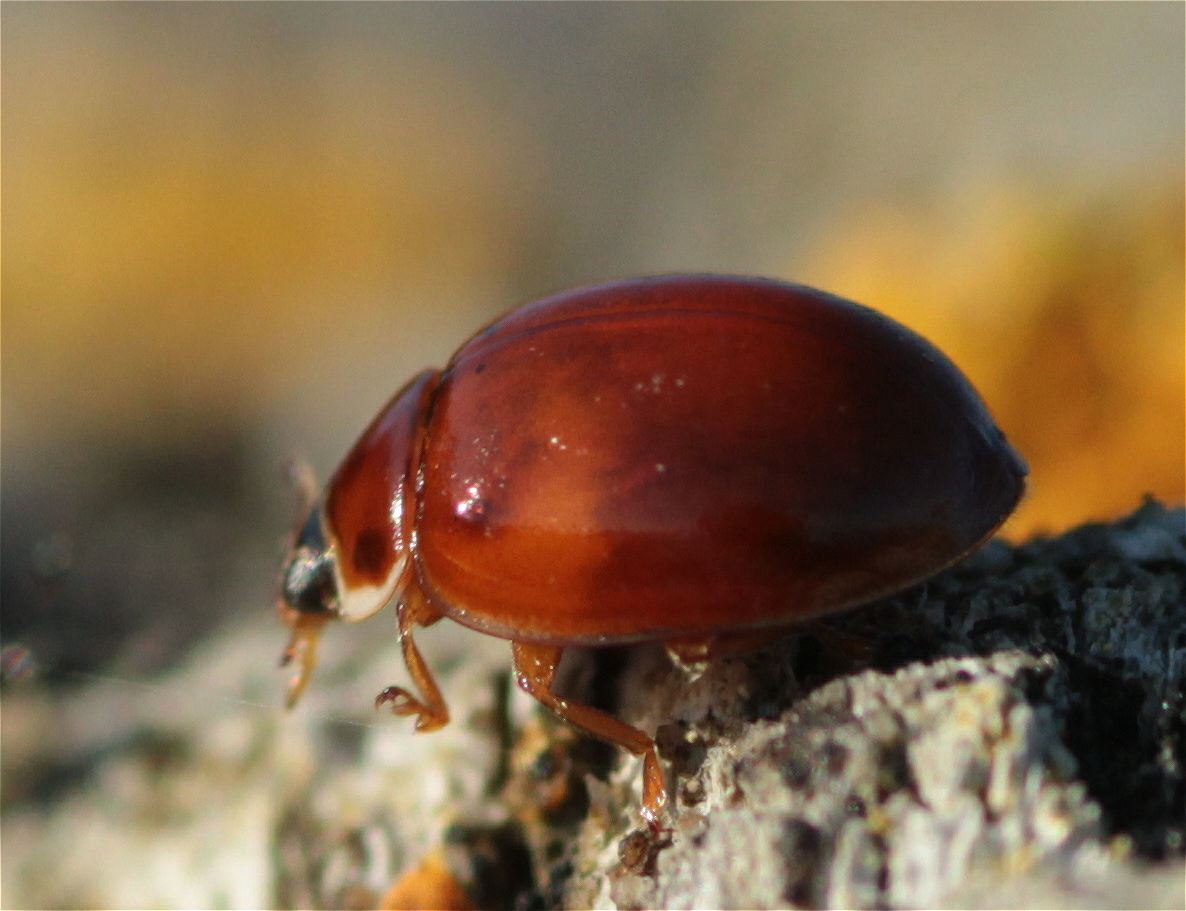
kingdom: Animalia
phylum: Arthropoda
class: Insecta
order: Coleoptera
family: Coccinellidae
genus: Adalia
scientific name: Adalia decempunctata
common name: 10-spot ladybird
